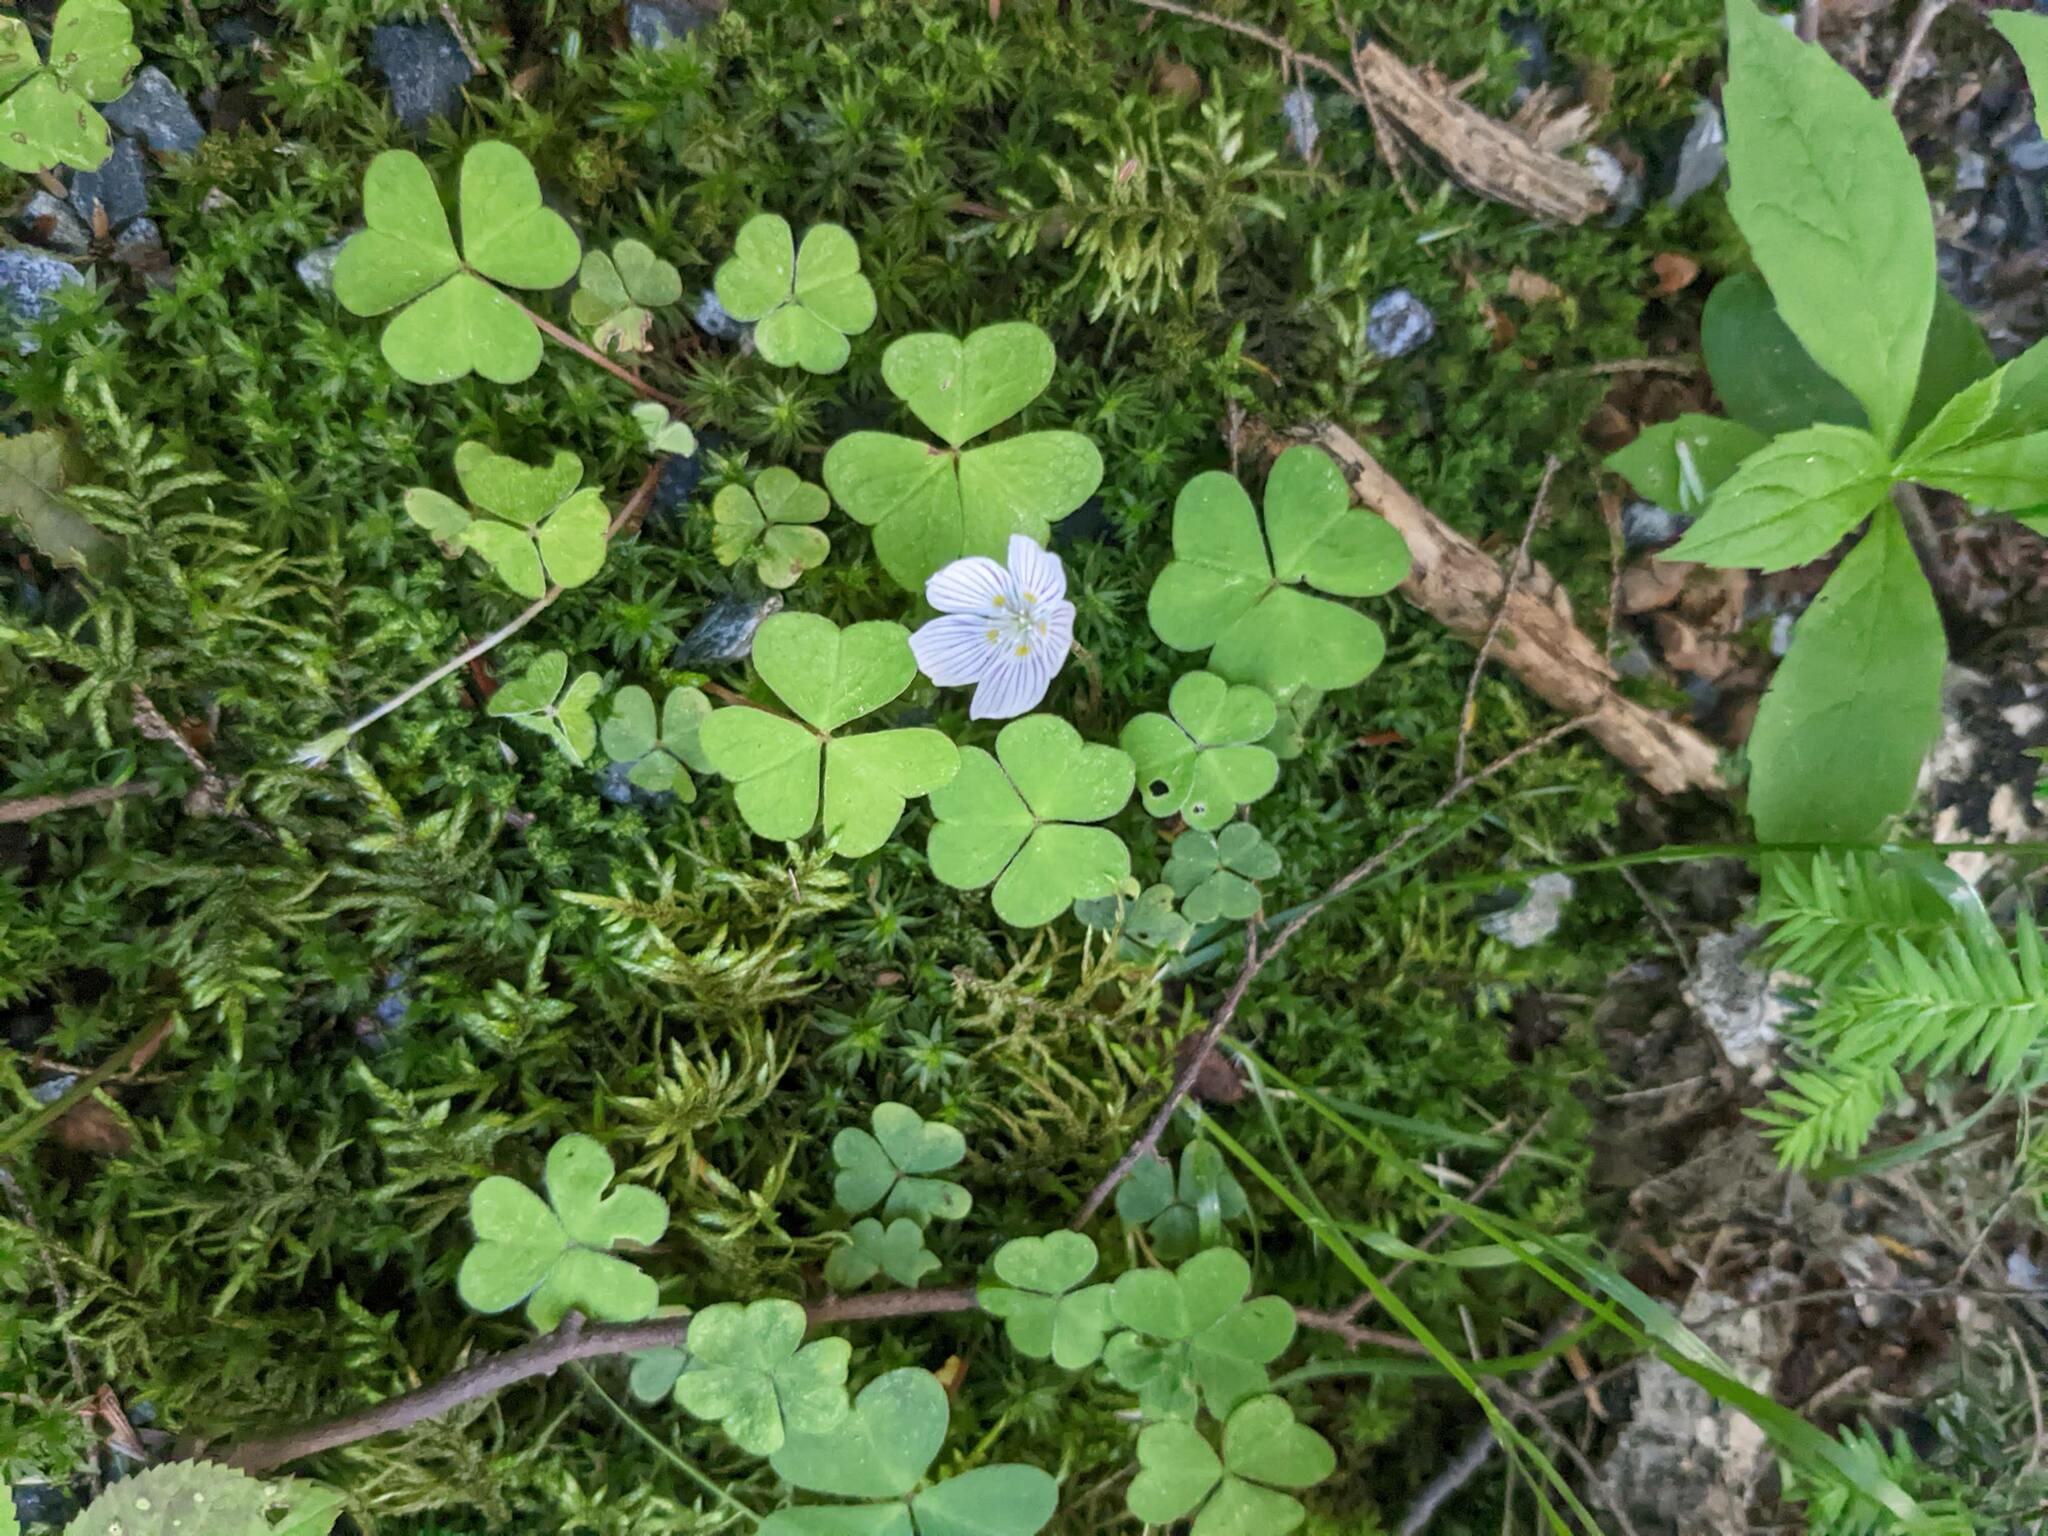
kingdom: Plantae
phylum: Tracheophyta
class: Magnoliopsida
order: Oxalidales
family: Oxalidaceae
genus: Oxalis
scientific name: Oxalis montana
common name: American wood-sorrel
